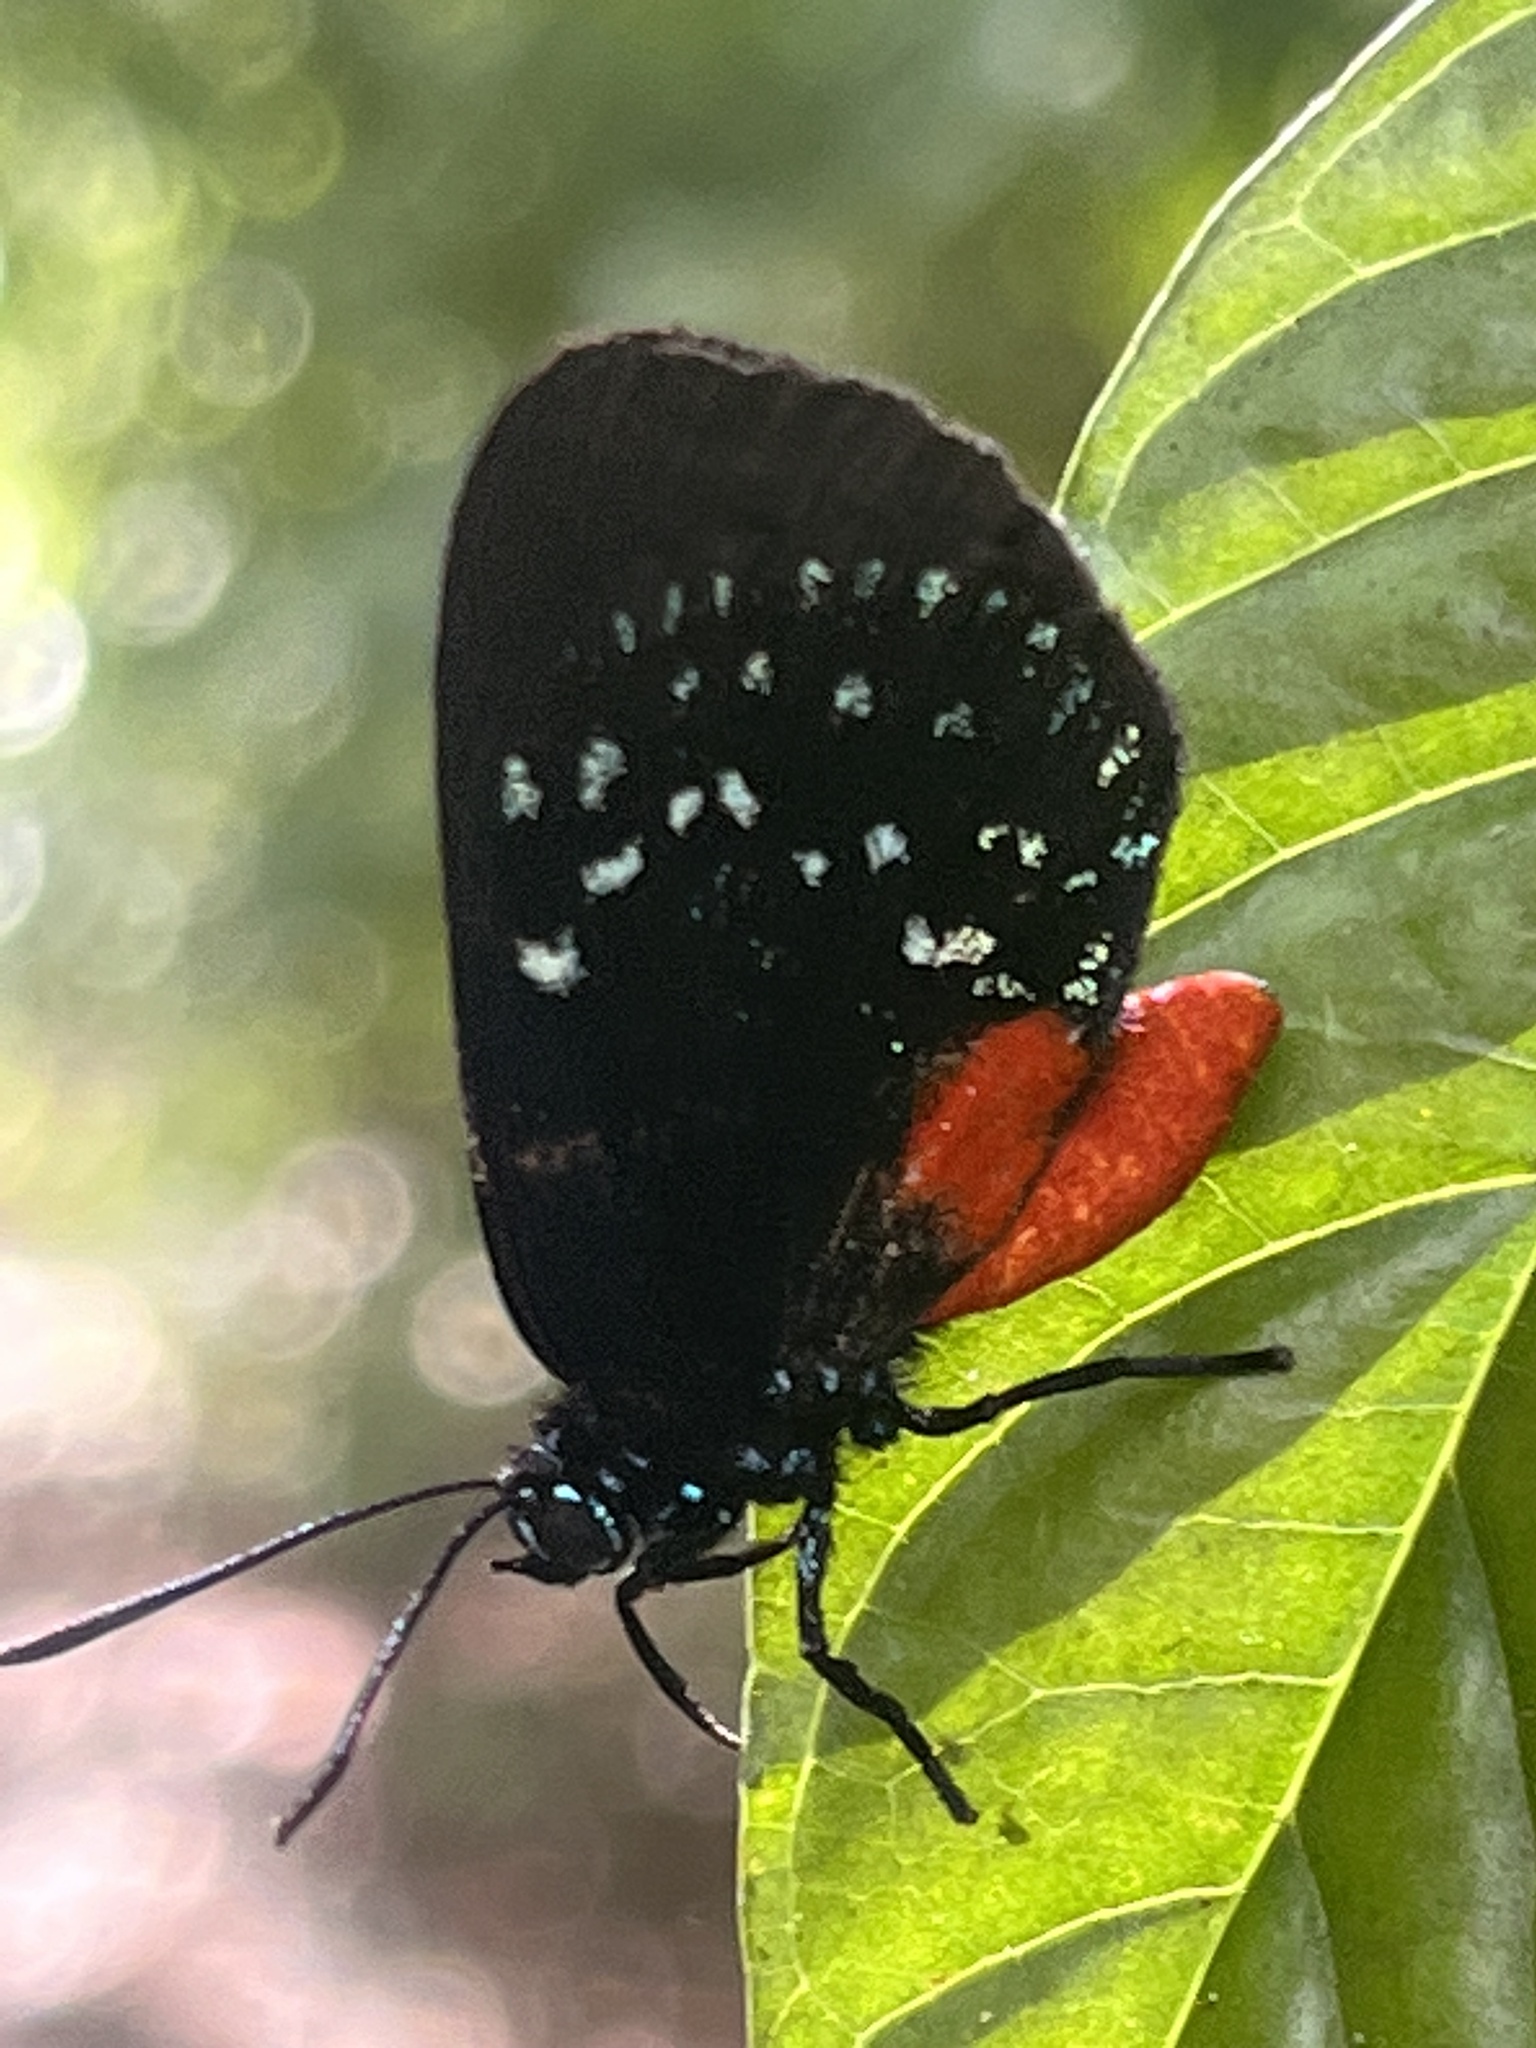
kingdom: Animalia
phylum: Arthropoda
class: Insecta
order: Lepidoptera
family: Lycaenidae
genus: Eumaeus
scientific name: Eumaeus atala
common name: Atala
